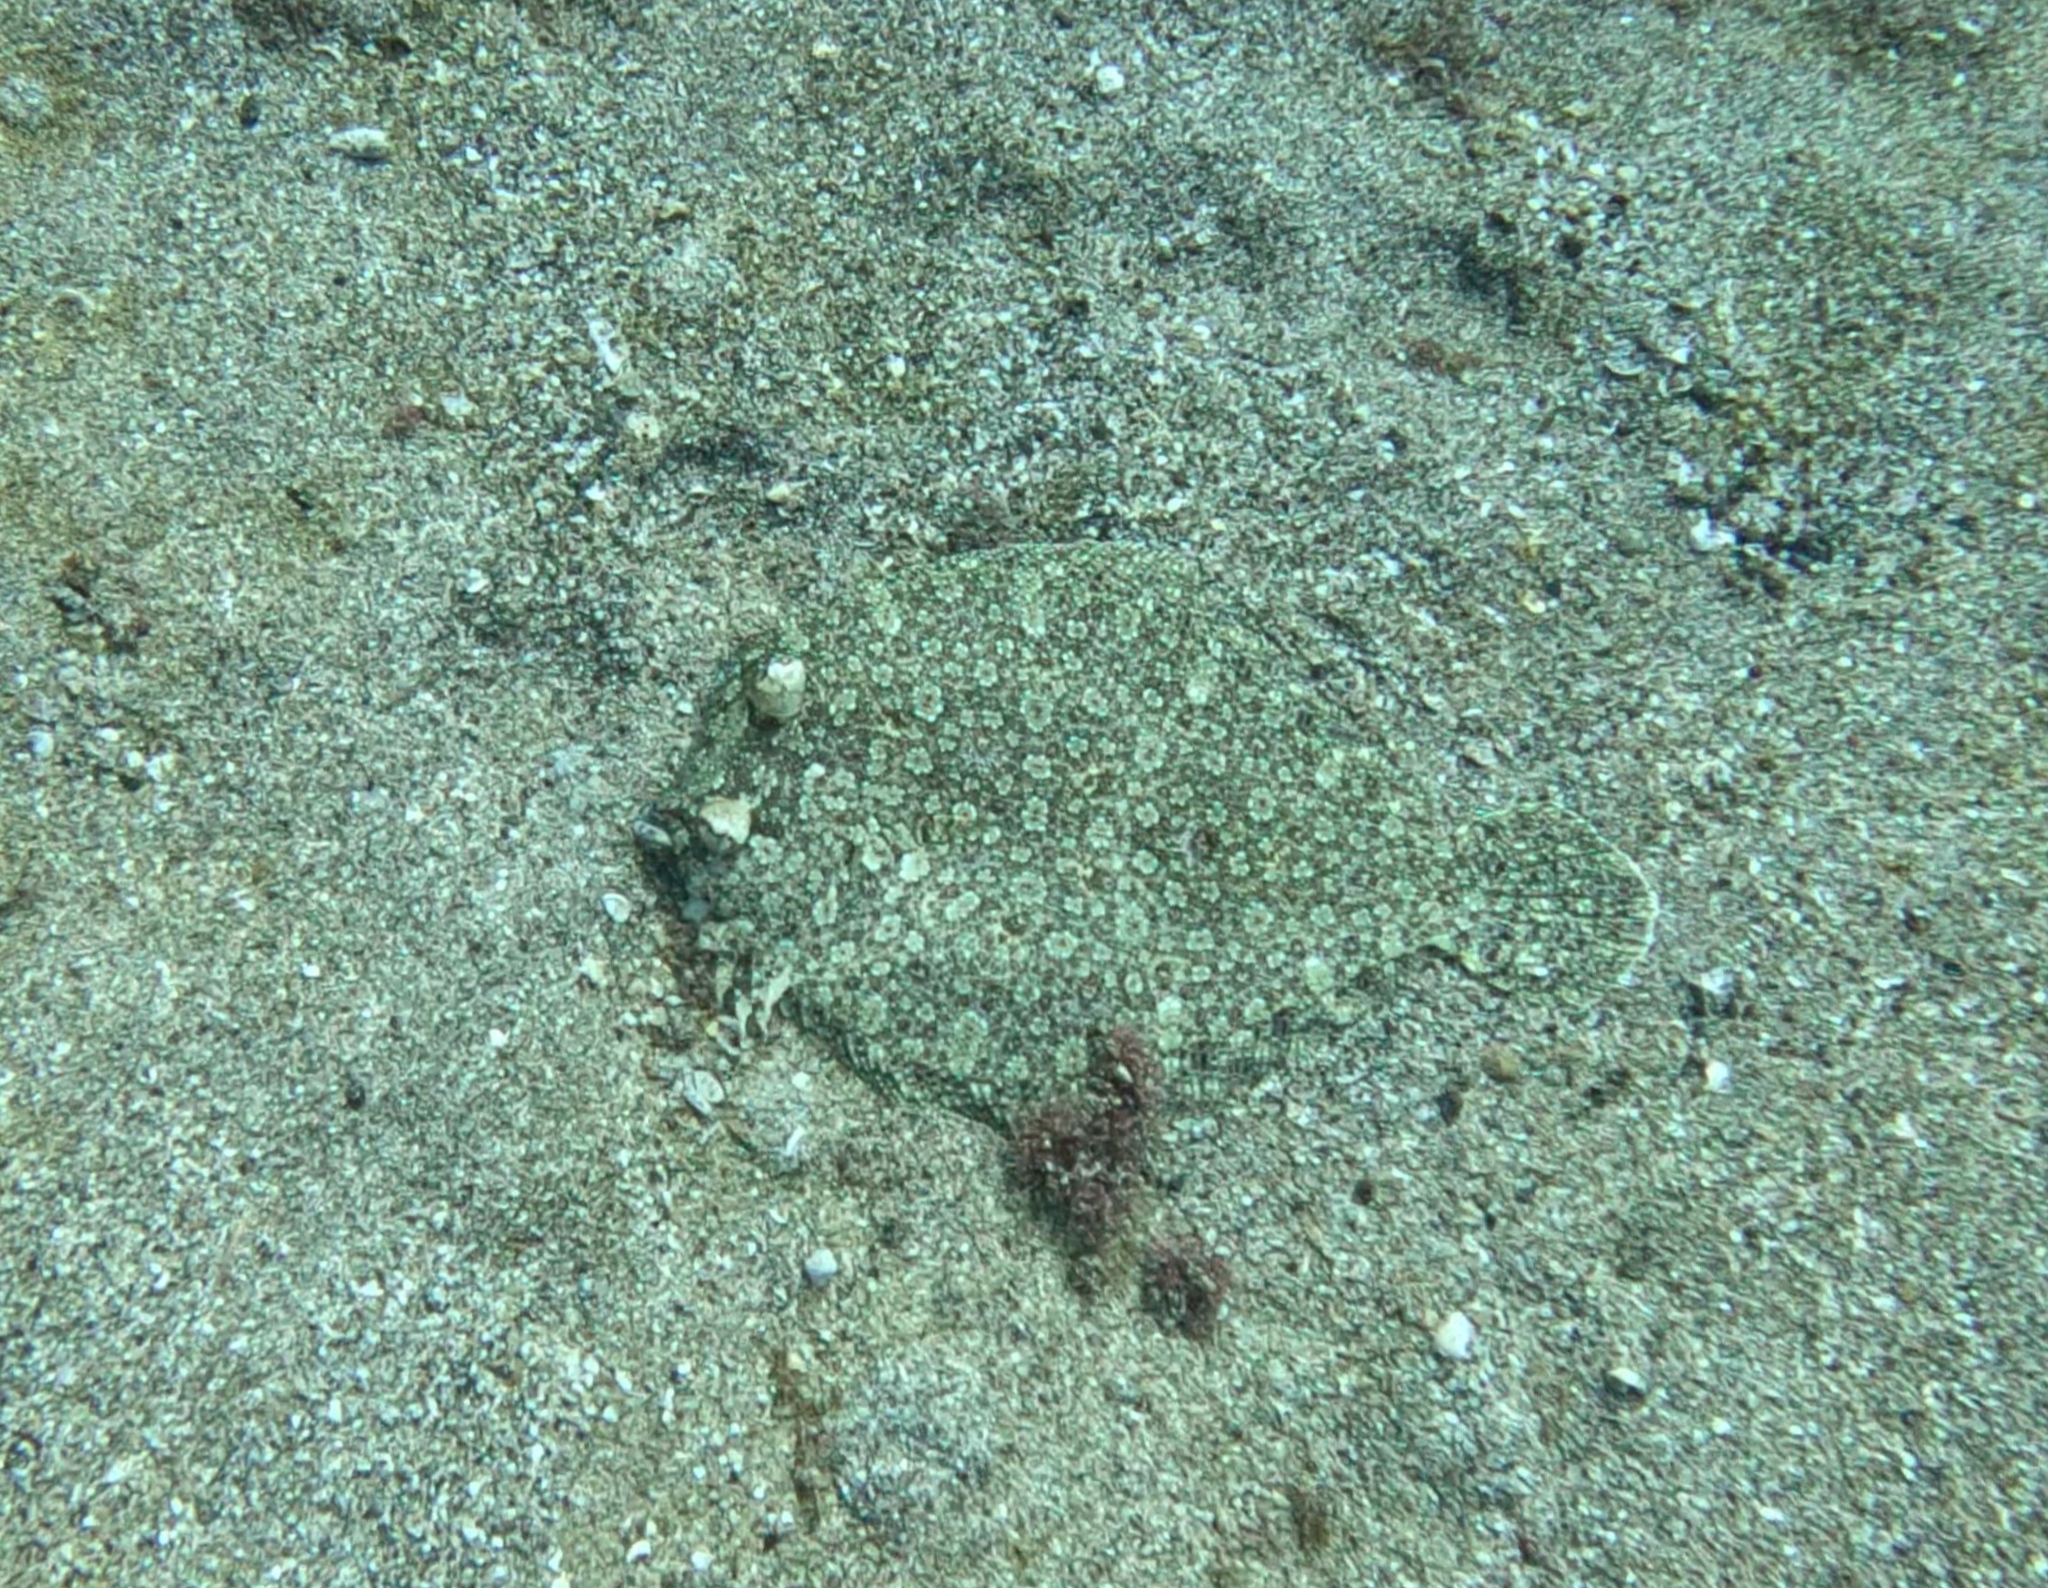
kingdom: Animalia
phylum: Chordata
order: Pleuronectiformes
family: Bothidae
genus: Bothus
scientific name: Bothus podas
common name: Wide-eyed flounder
